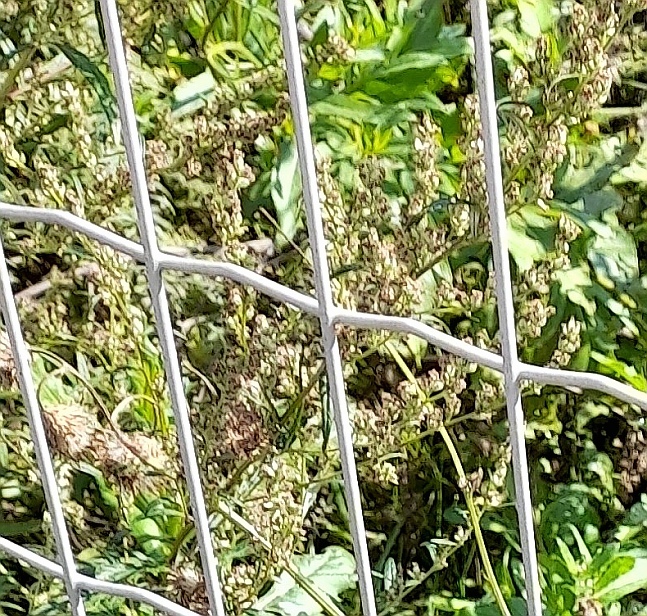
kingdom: Plantae
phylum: Tracheophyta
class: Magnoliopsida
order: Asterales
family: Asteraceae
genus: Artemisia
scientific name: Artemisia vulgaris
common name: Mugwort
